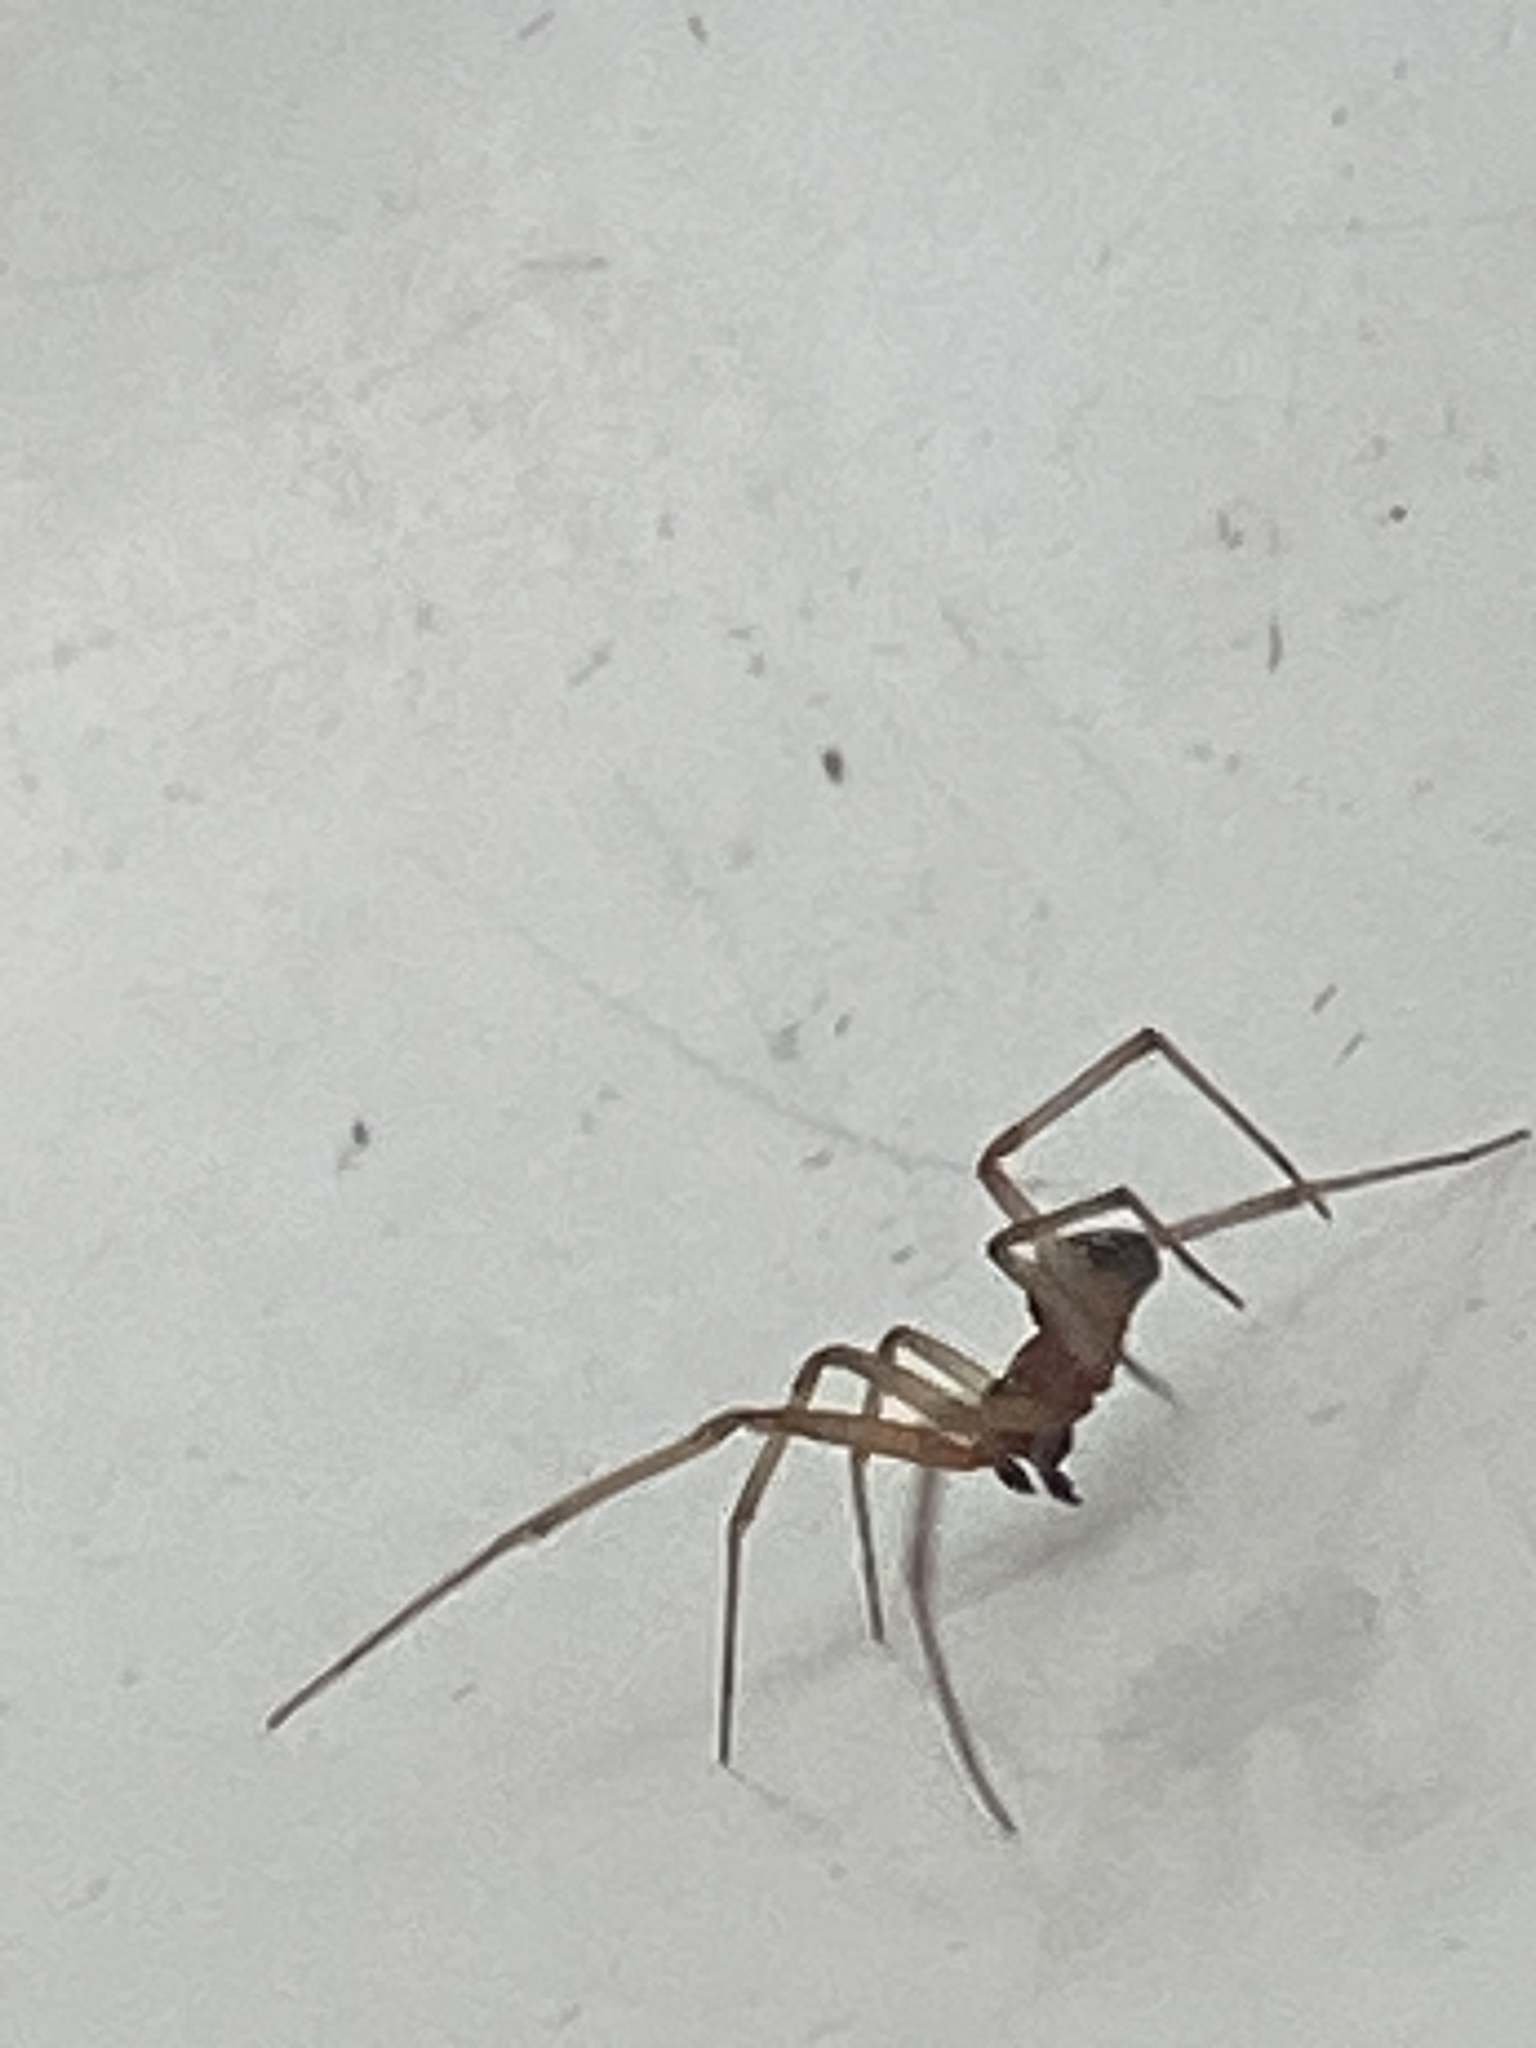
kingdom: Animalia
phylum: Arthropoda
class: Arachnida
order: Araneae
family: Theridiidae
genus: Steatoda
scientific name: Steatoda grossa
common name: False black widow
